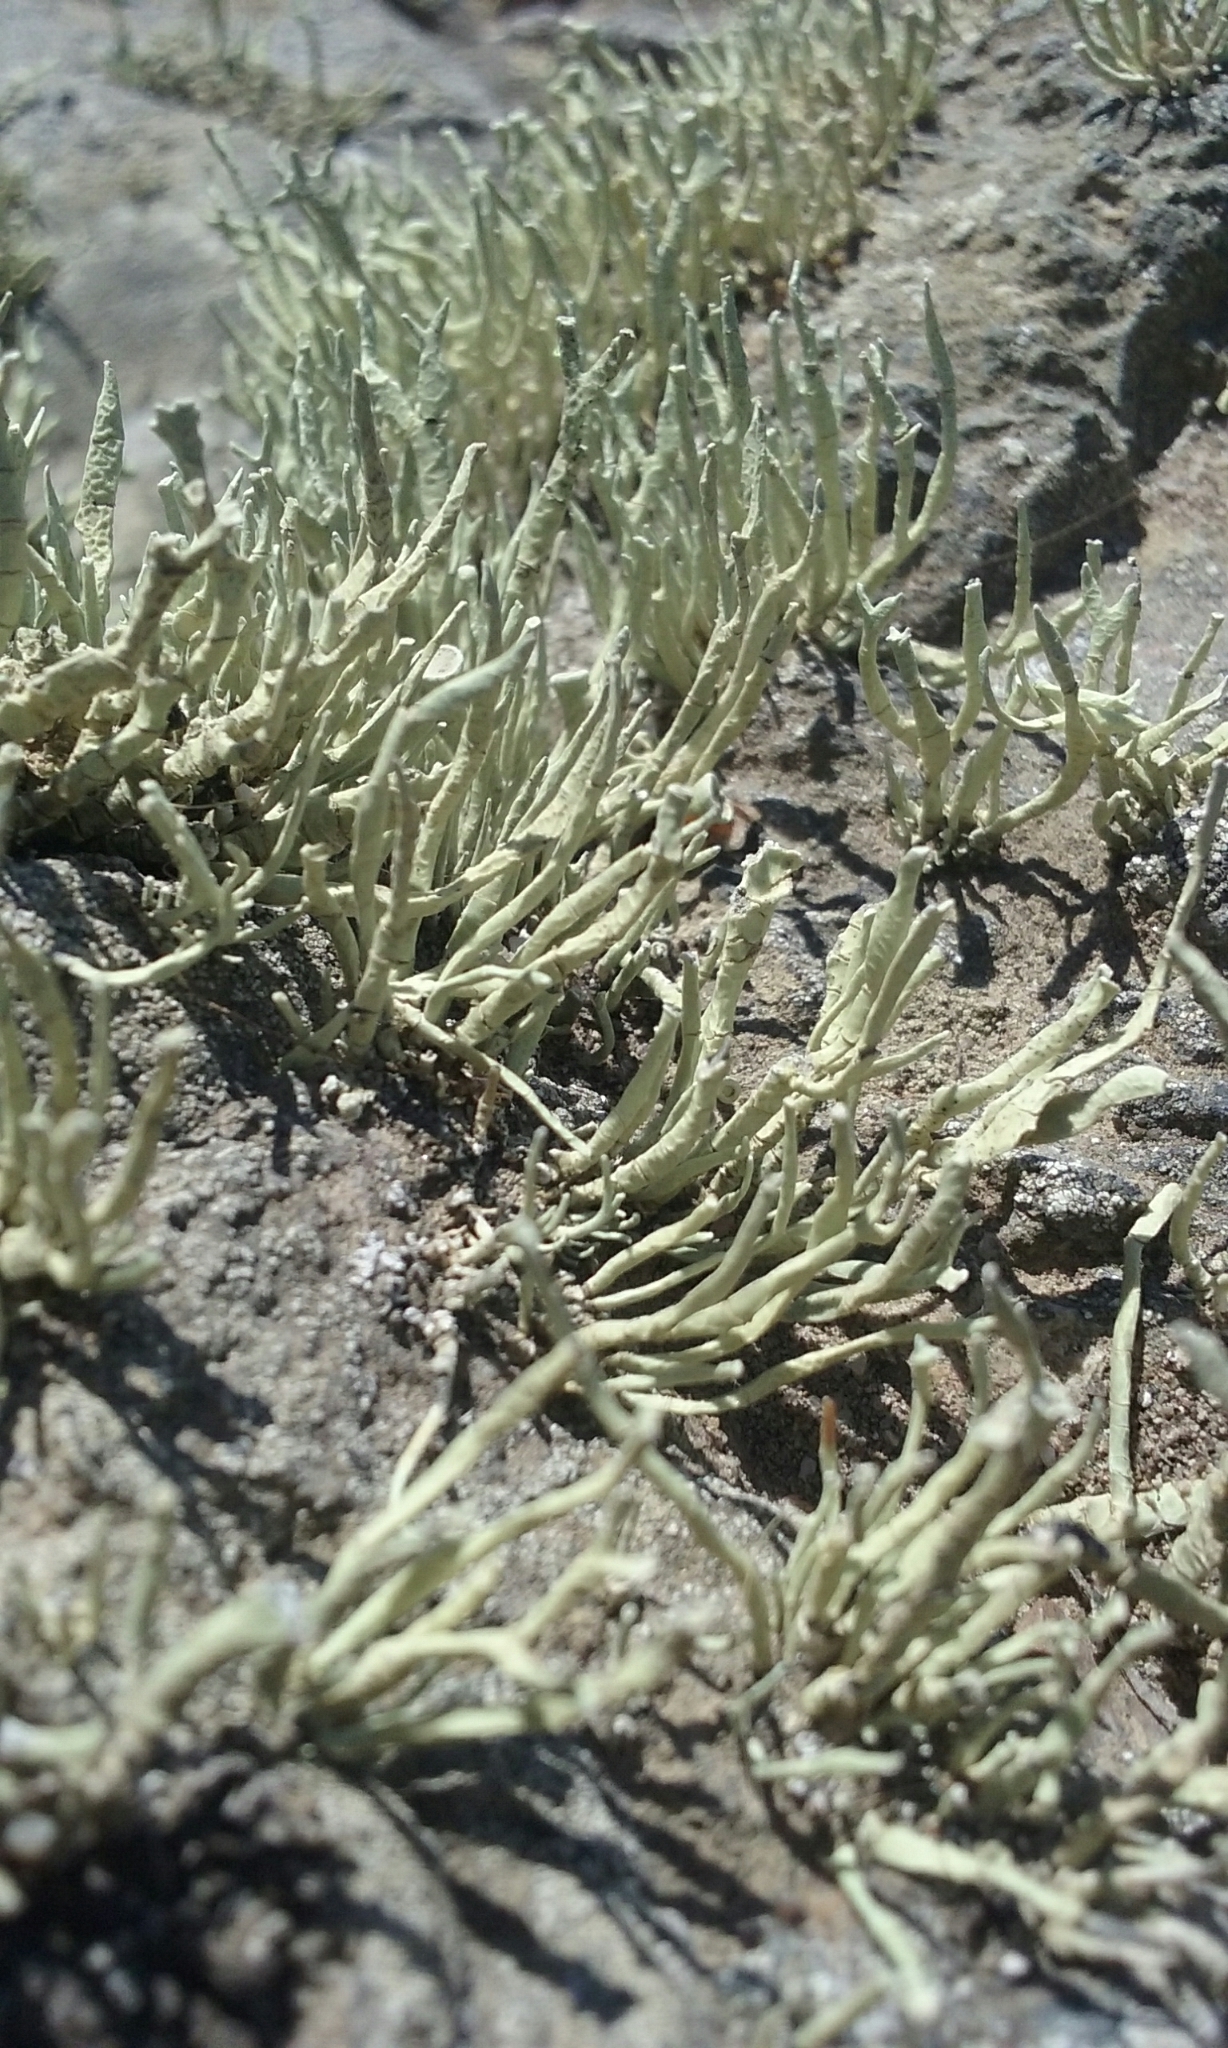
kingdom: Fungi
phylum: Ascomycota
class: Lecanoromycetes
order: Lecanorales
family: Ramalinaceae
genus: Niebla
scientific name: Niebla homalea
